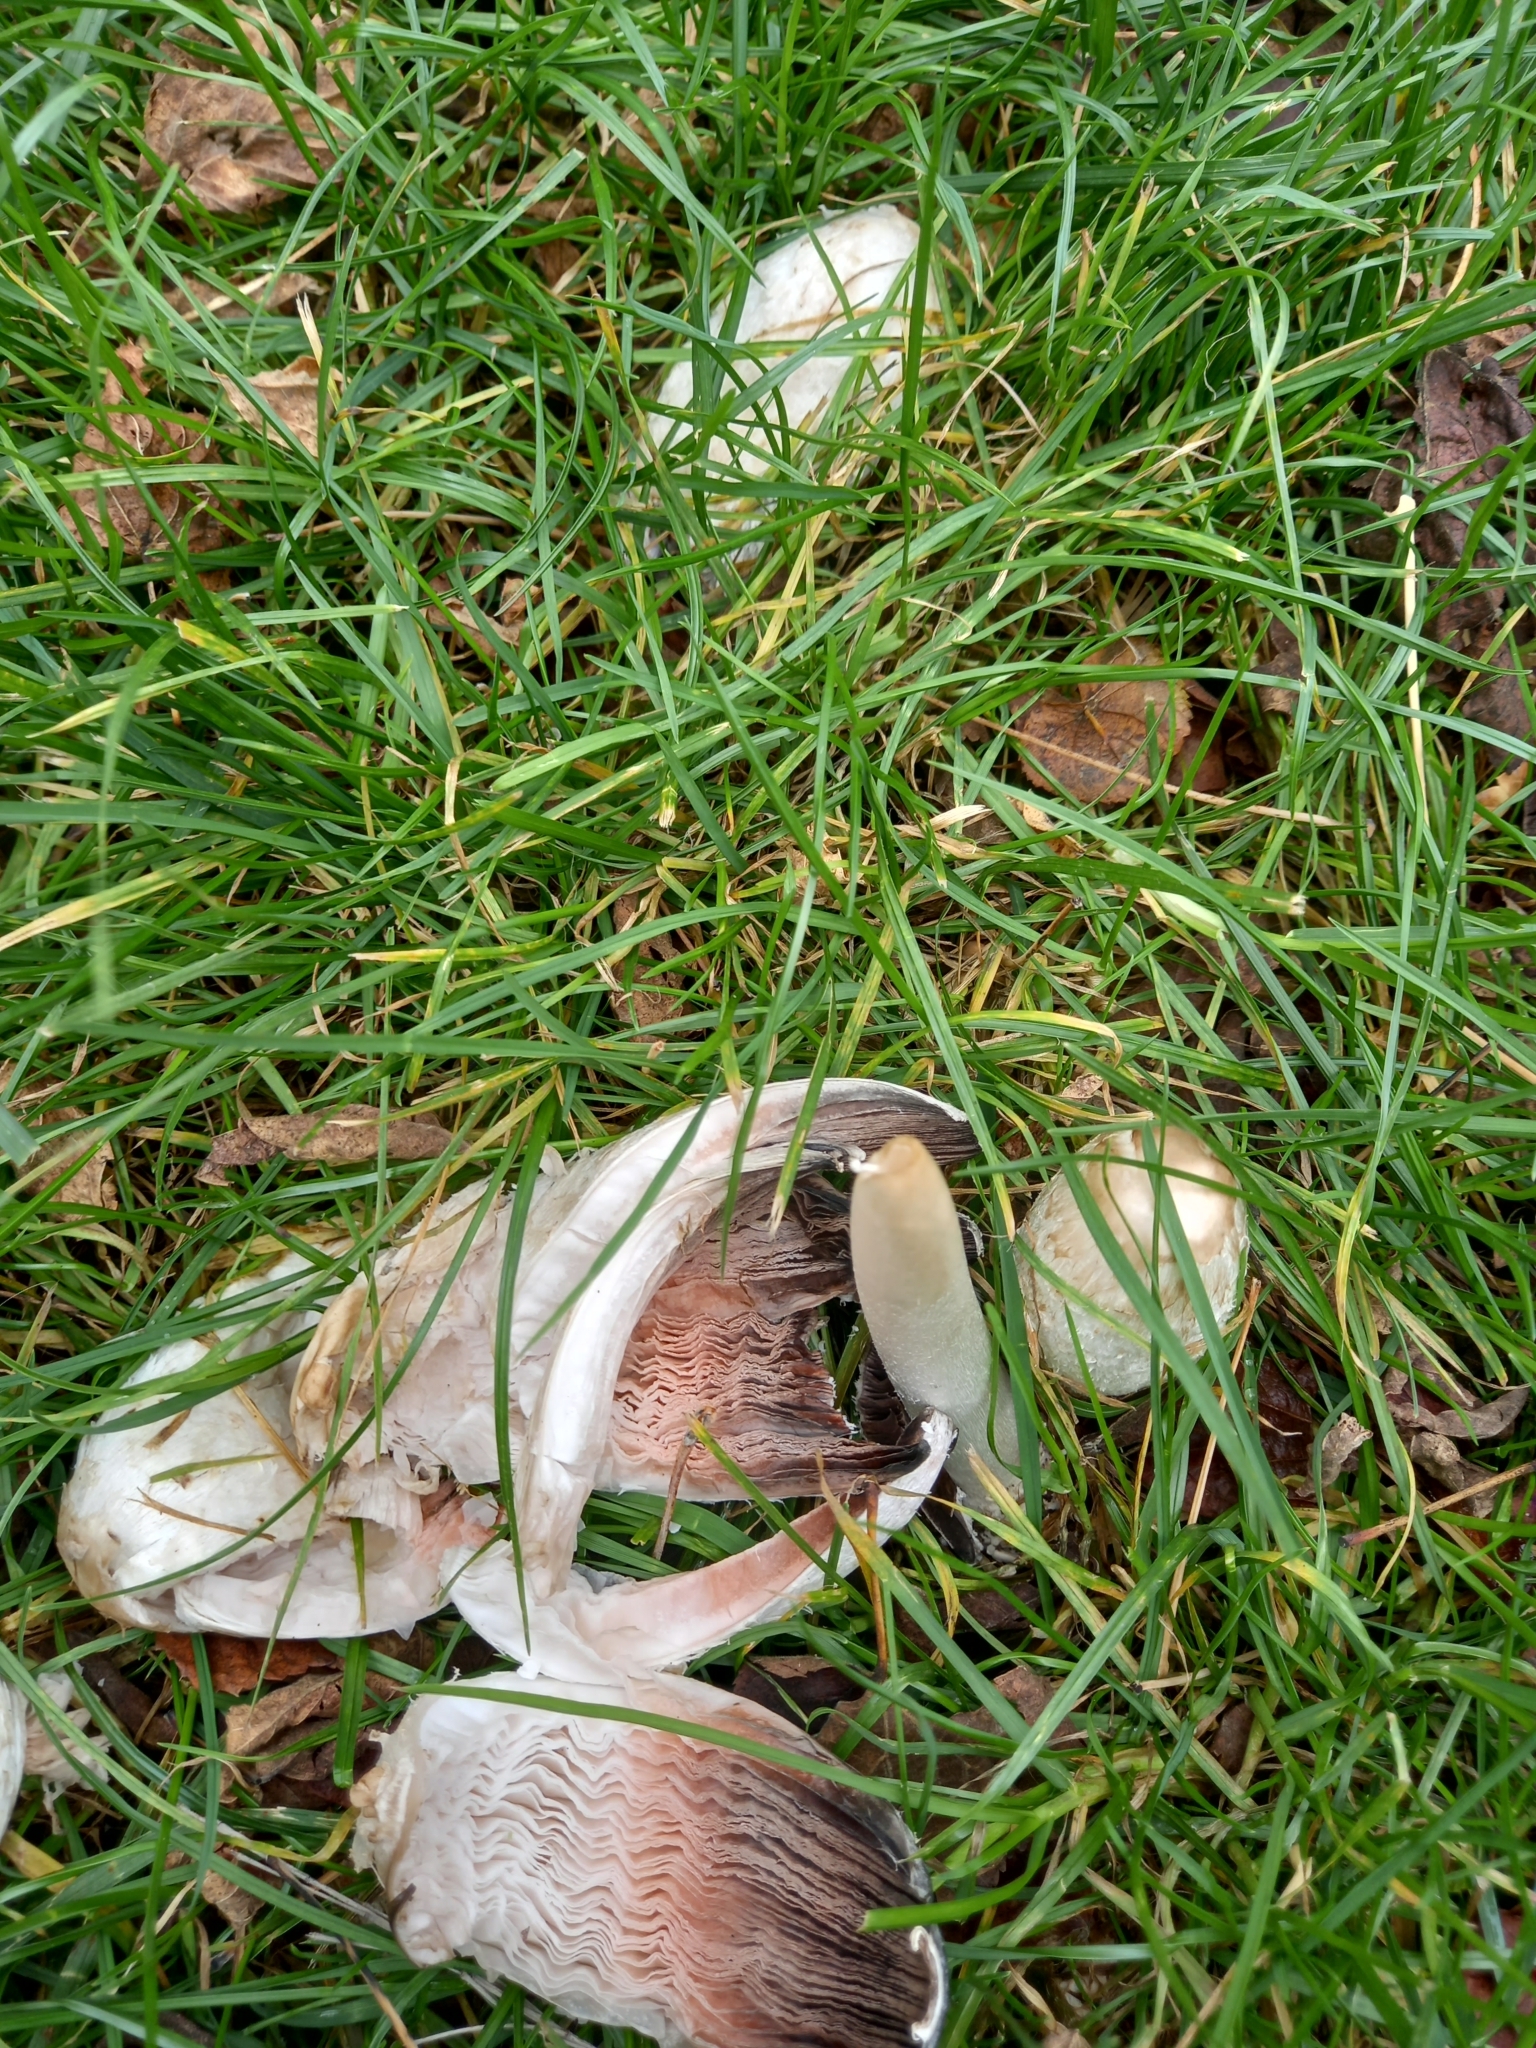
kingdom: Fungi
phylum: Basidiomycota
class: Agaricomycetes
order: Agaricales
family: Agaricaceae
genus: Coprinus
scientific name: Coprinus comatus
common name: Lawyer's wig
